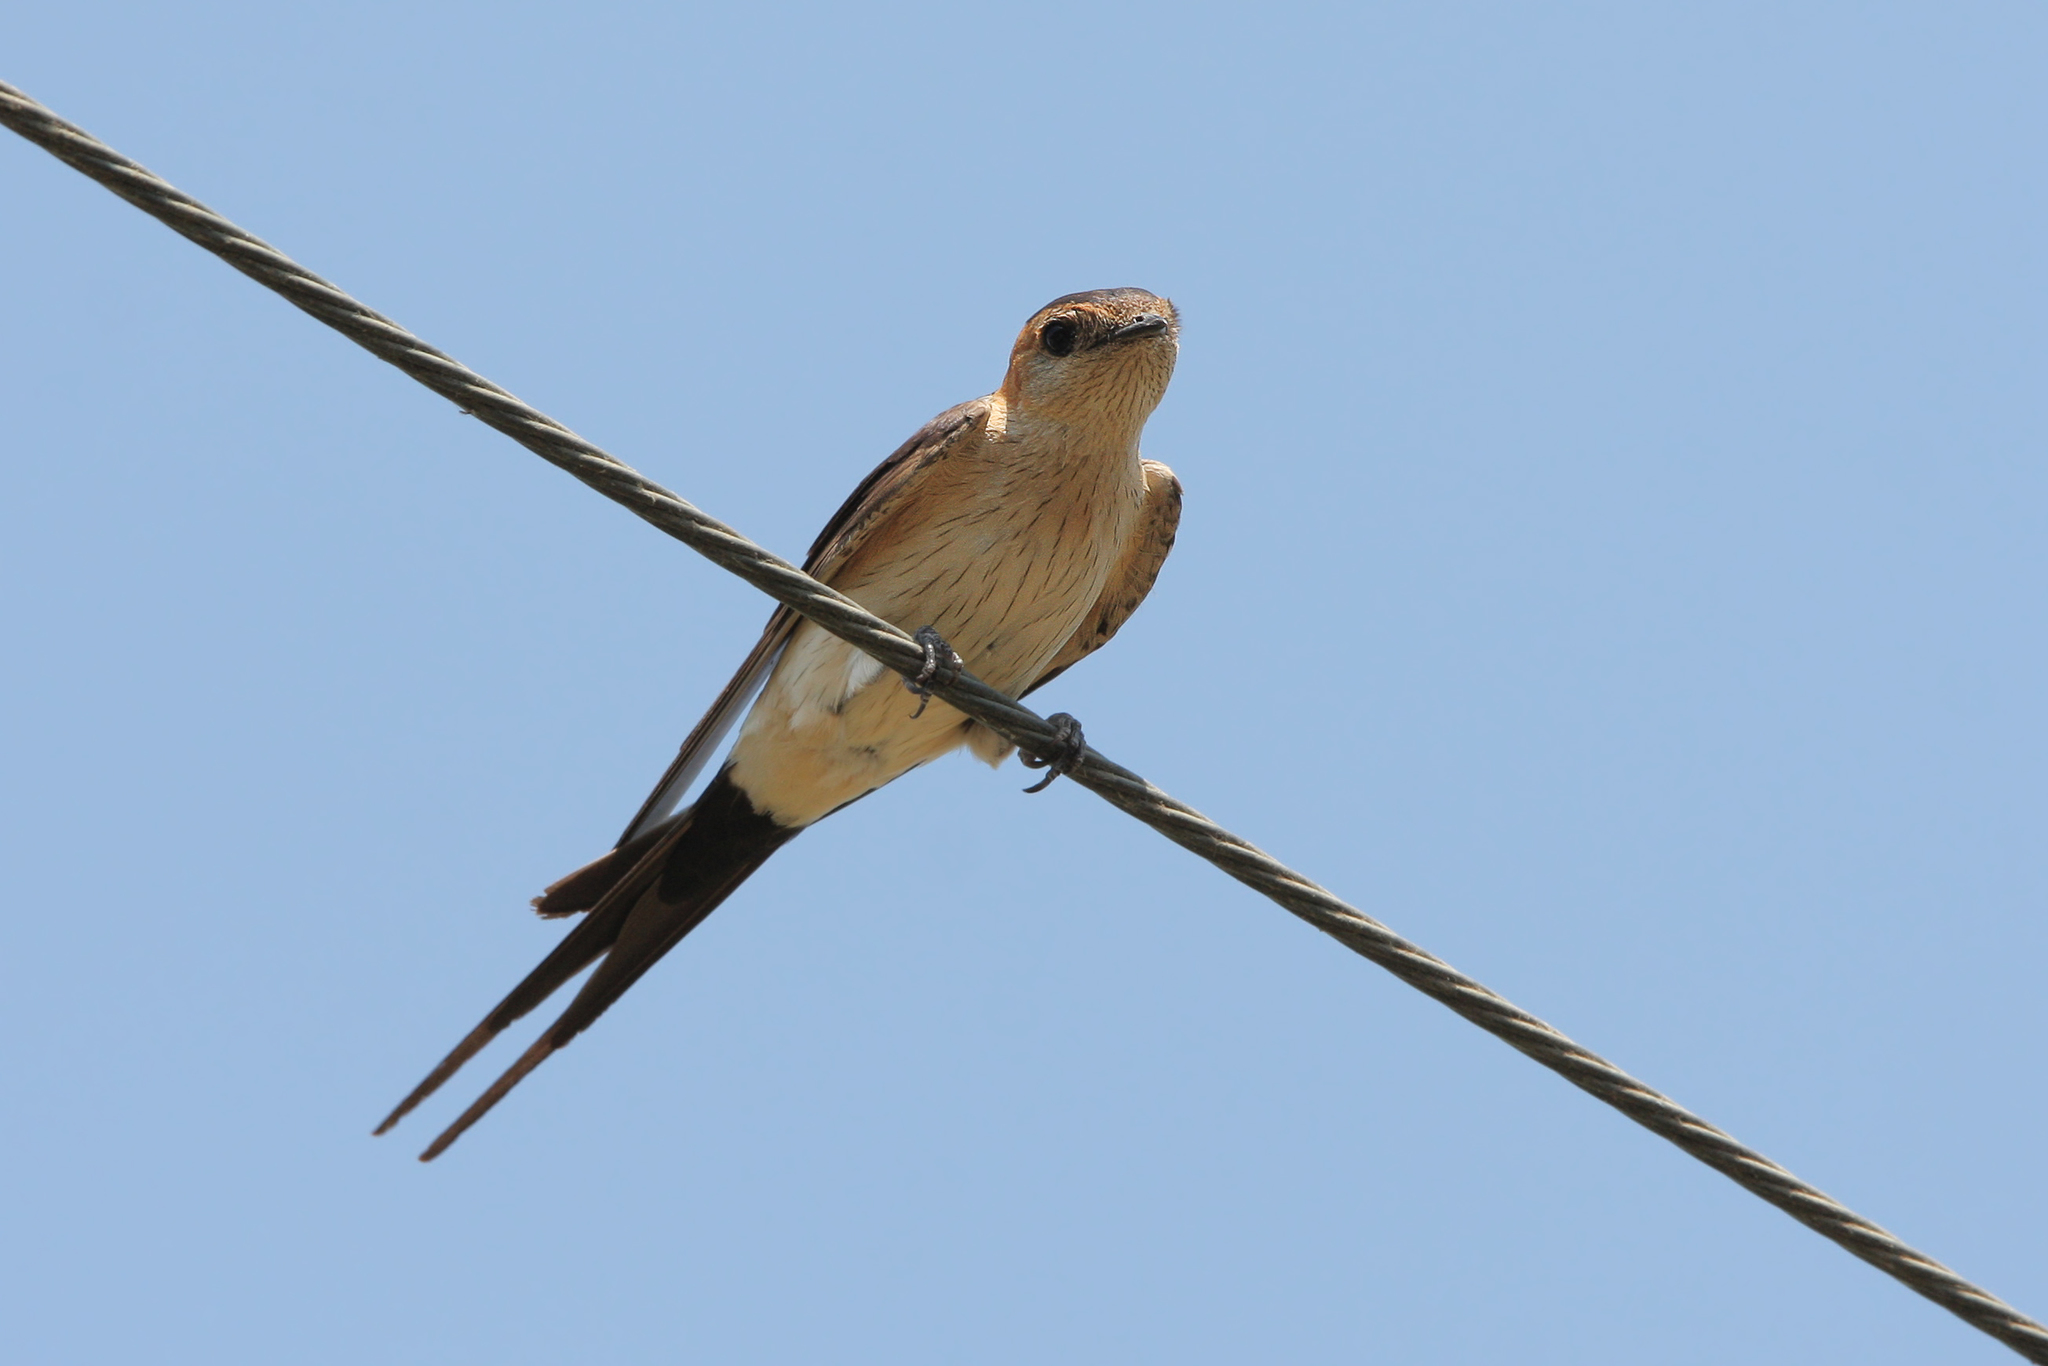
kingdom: Animalia
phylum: Chordata
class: Aves
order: Passeriformes
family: Hirundinidae
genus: Cecropis
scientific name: Cecropis daurica
